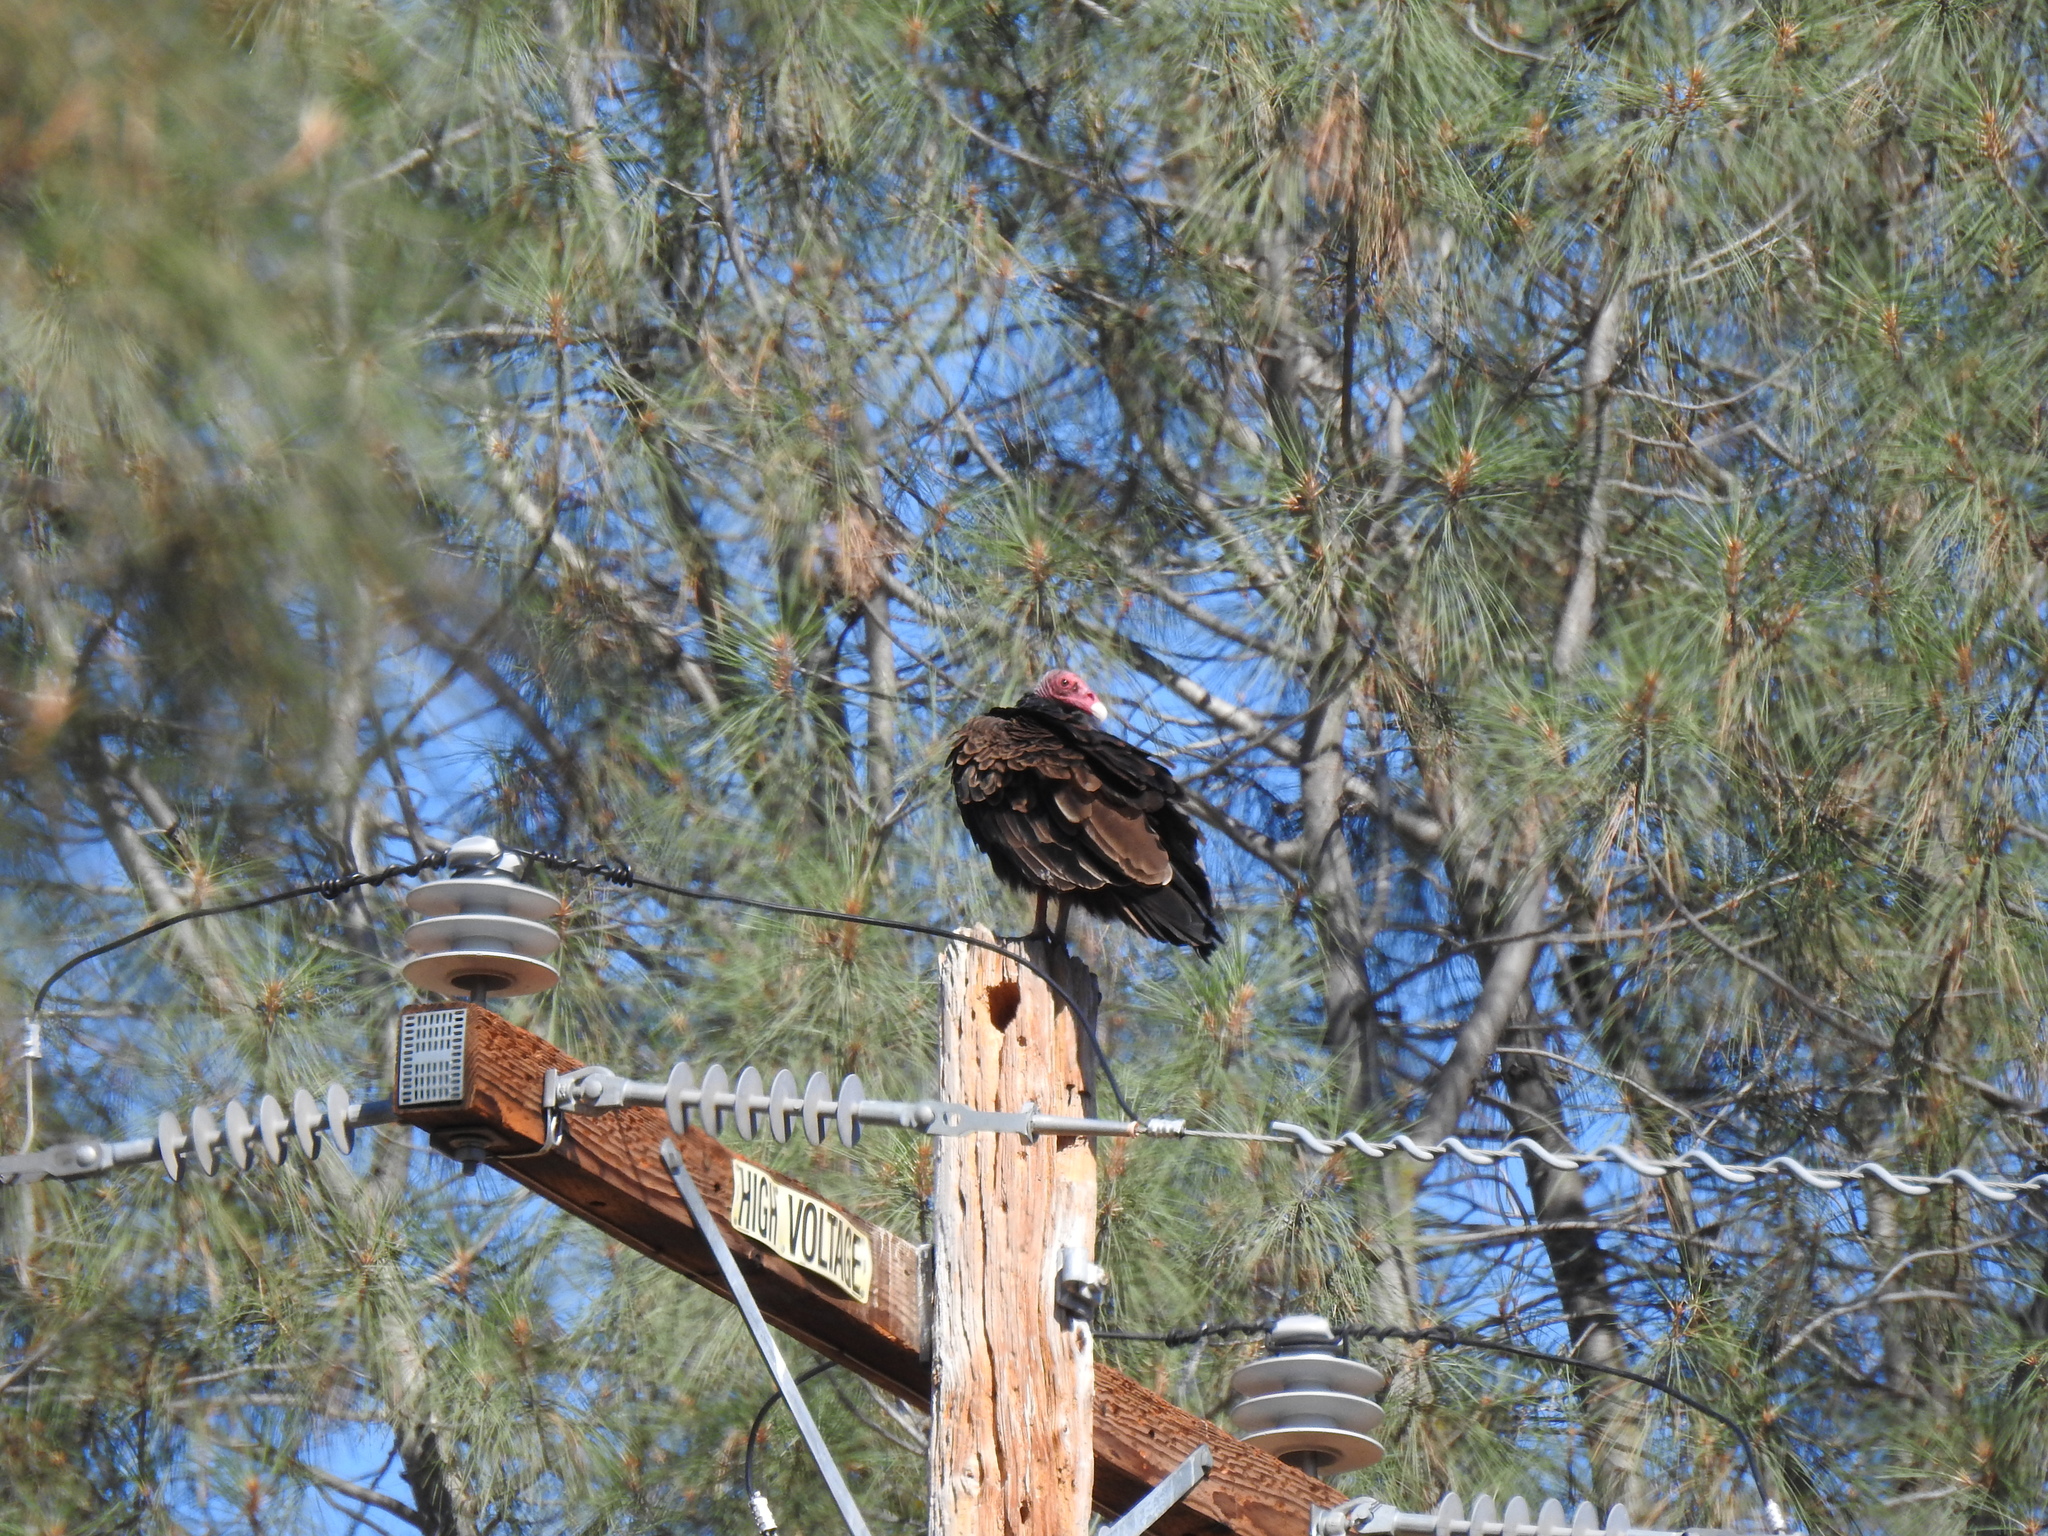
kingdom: Animalia
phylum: Chordata
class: Aves
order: Accipitriformes
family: Cathartidae
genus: Cathartes
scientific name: Cathartes aura
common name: Turkey vulture
